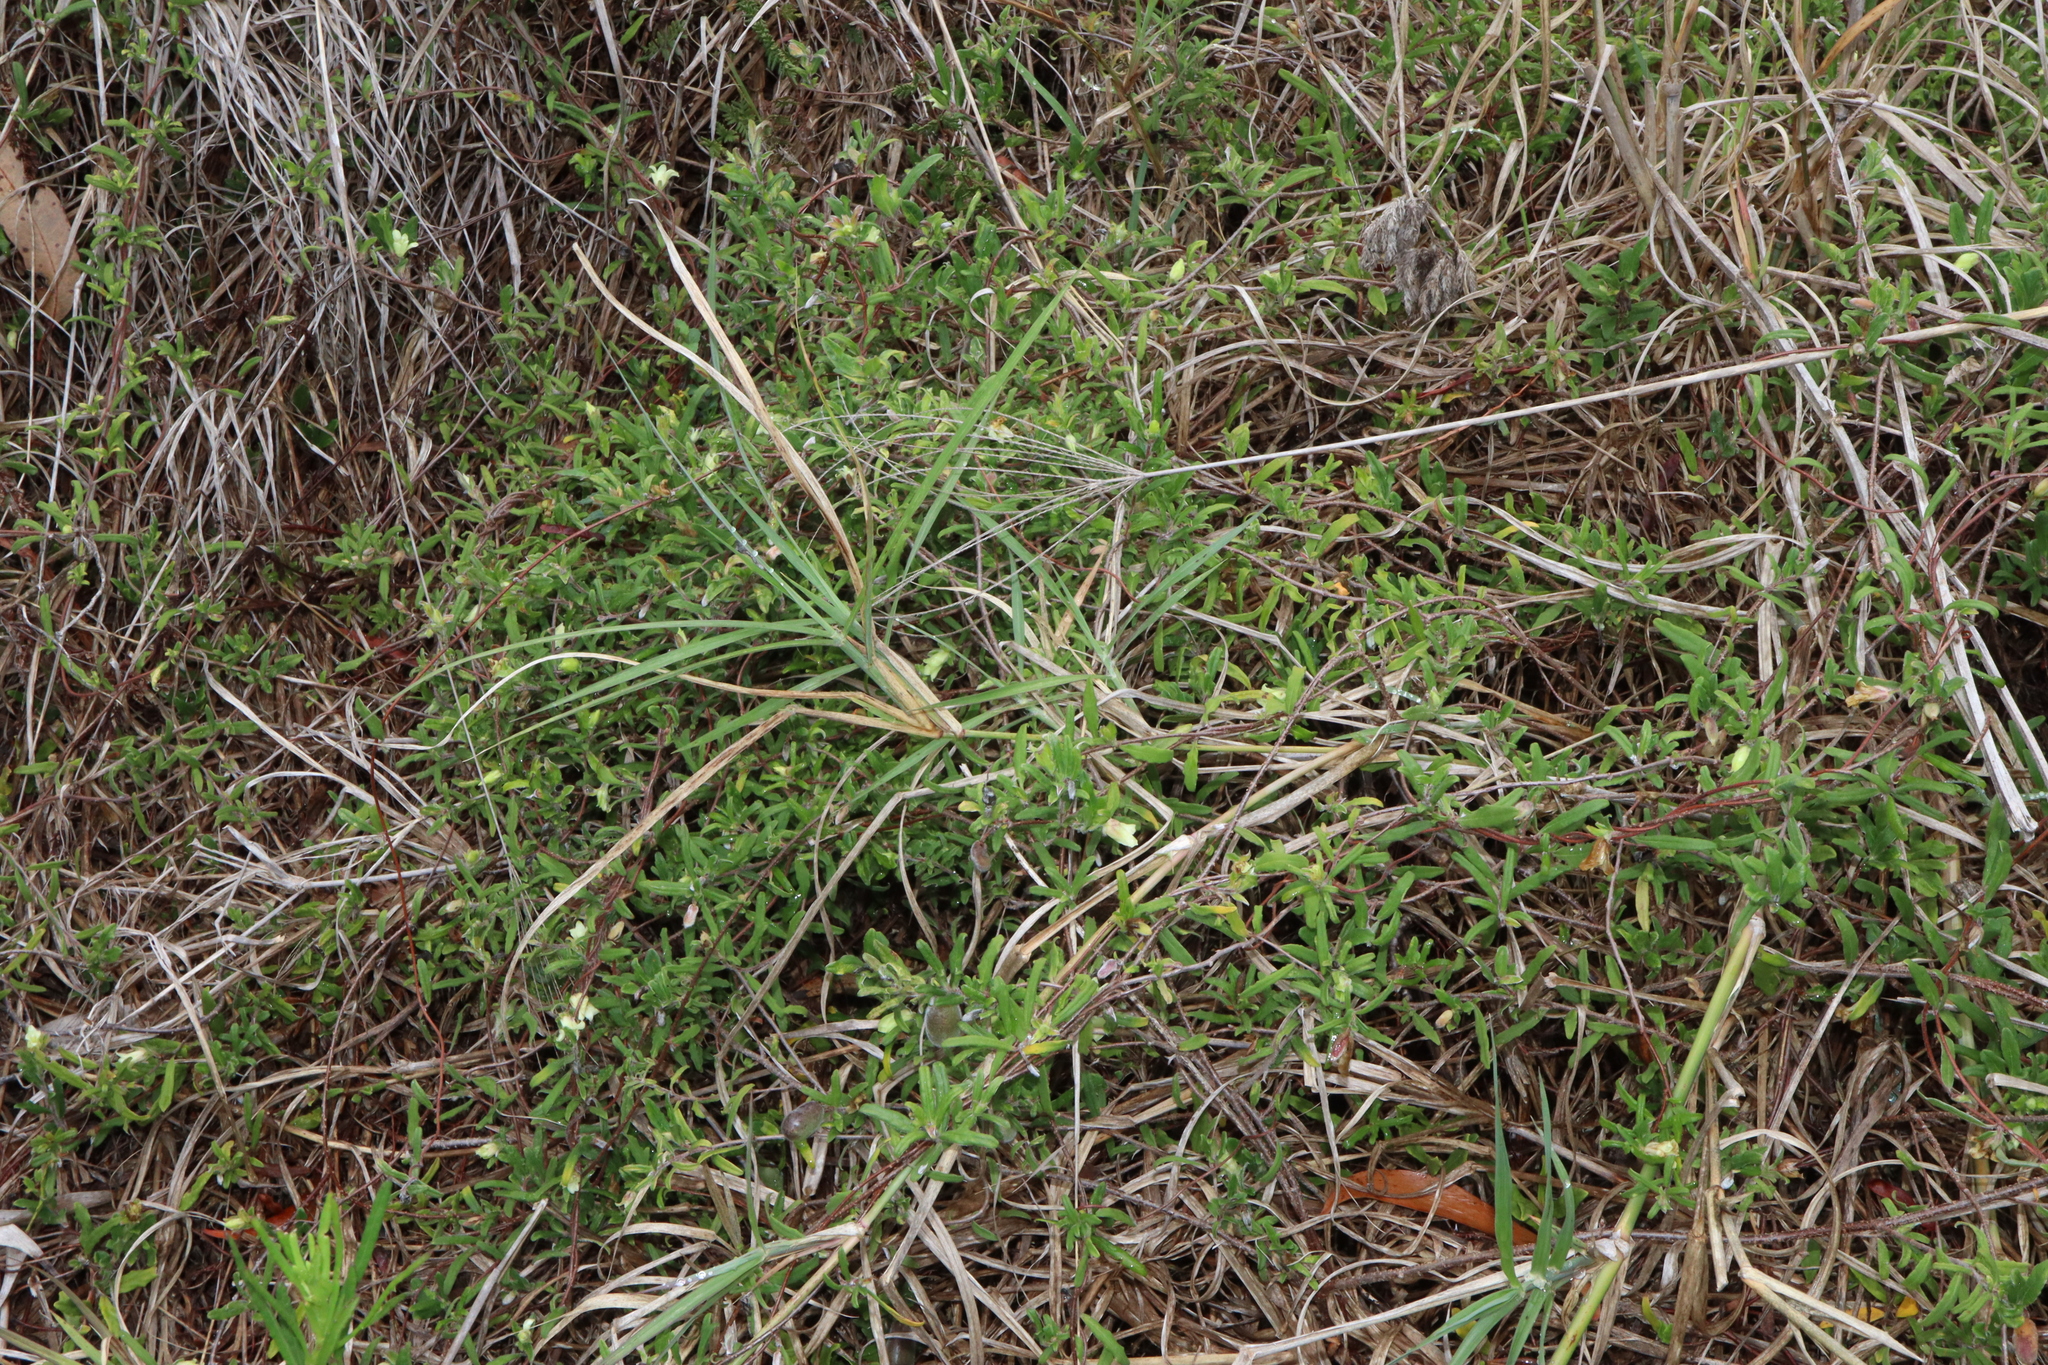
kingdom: Plantae
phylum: Tracheophyta
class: Magnoliopsida
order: Apiales
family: Pittosporaceae
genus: Billardiera
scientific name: Billardiera scandens
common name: Apple-berry
